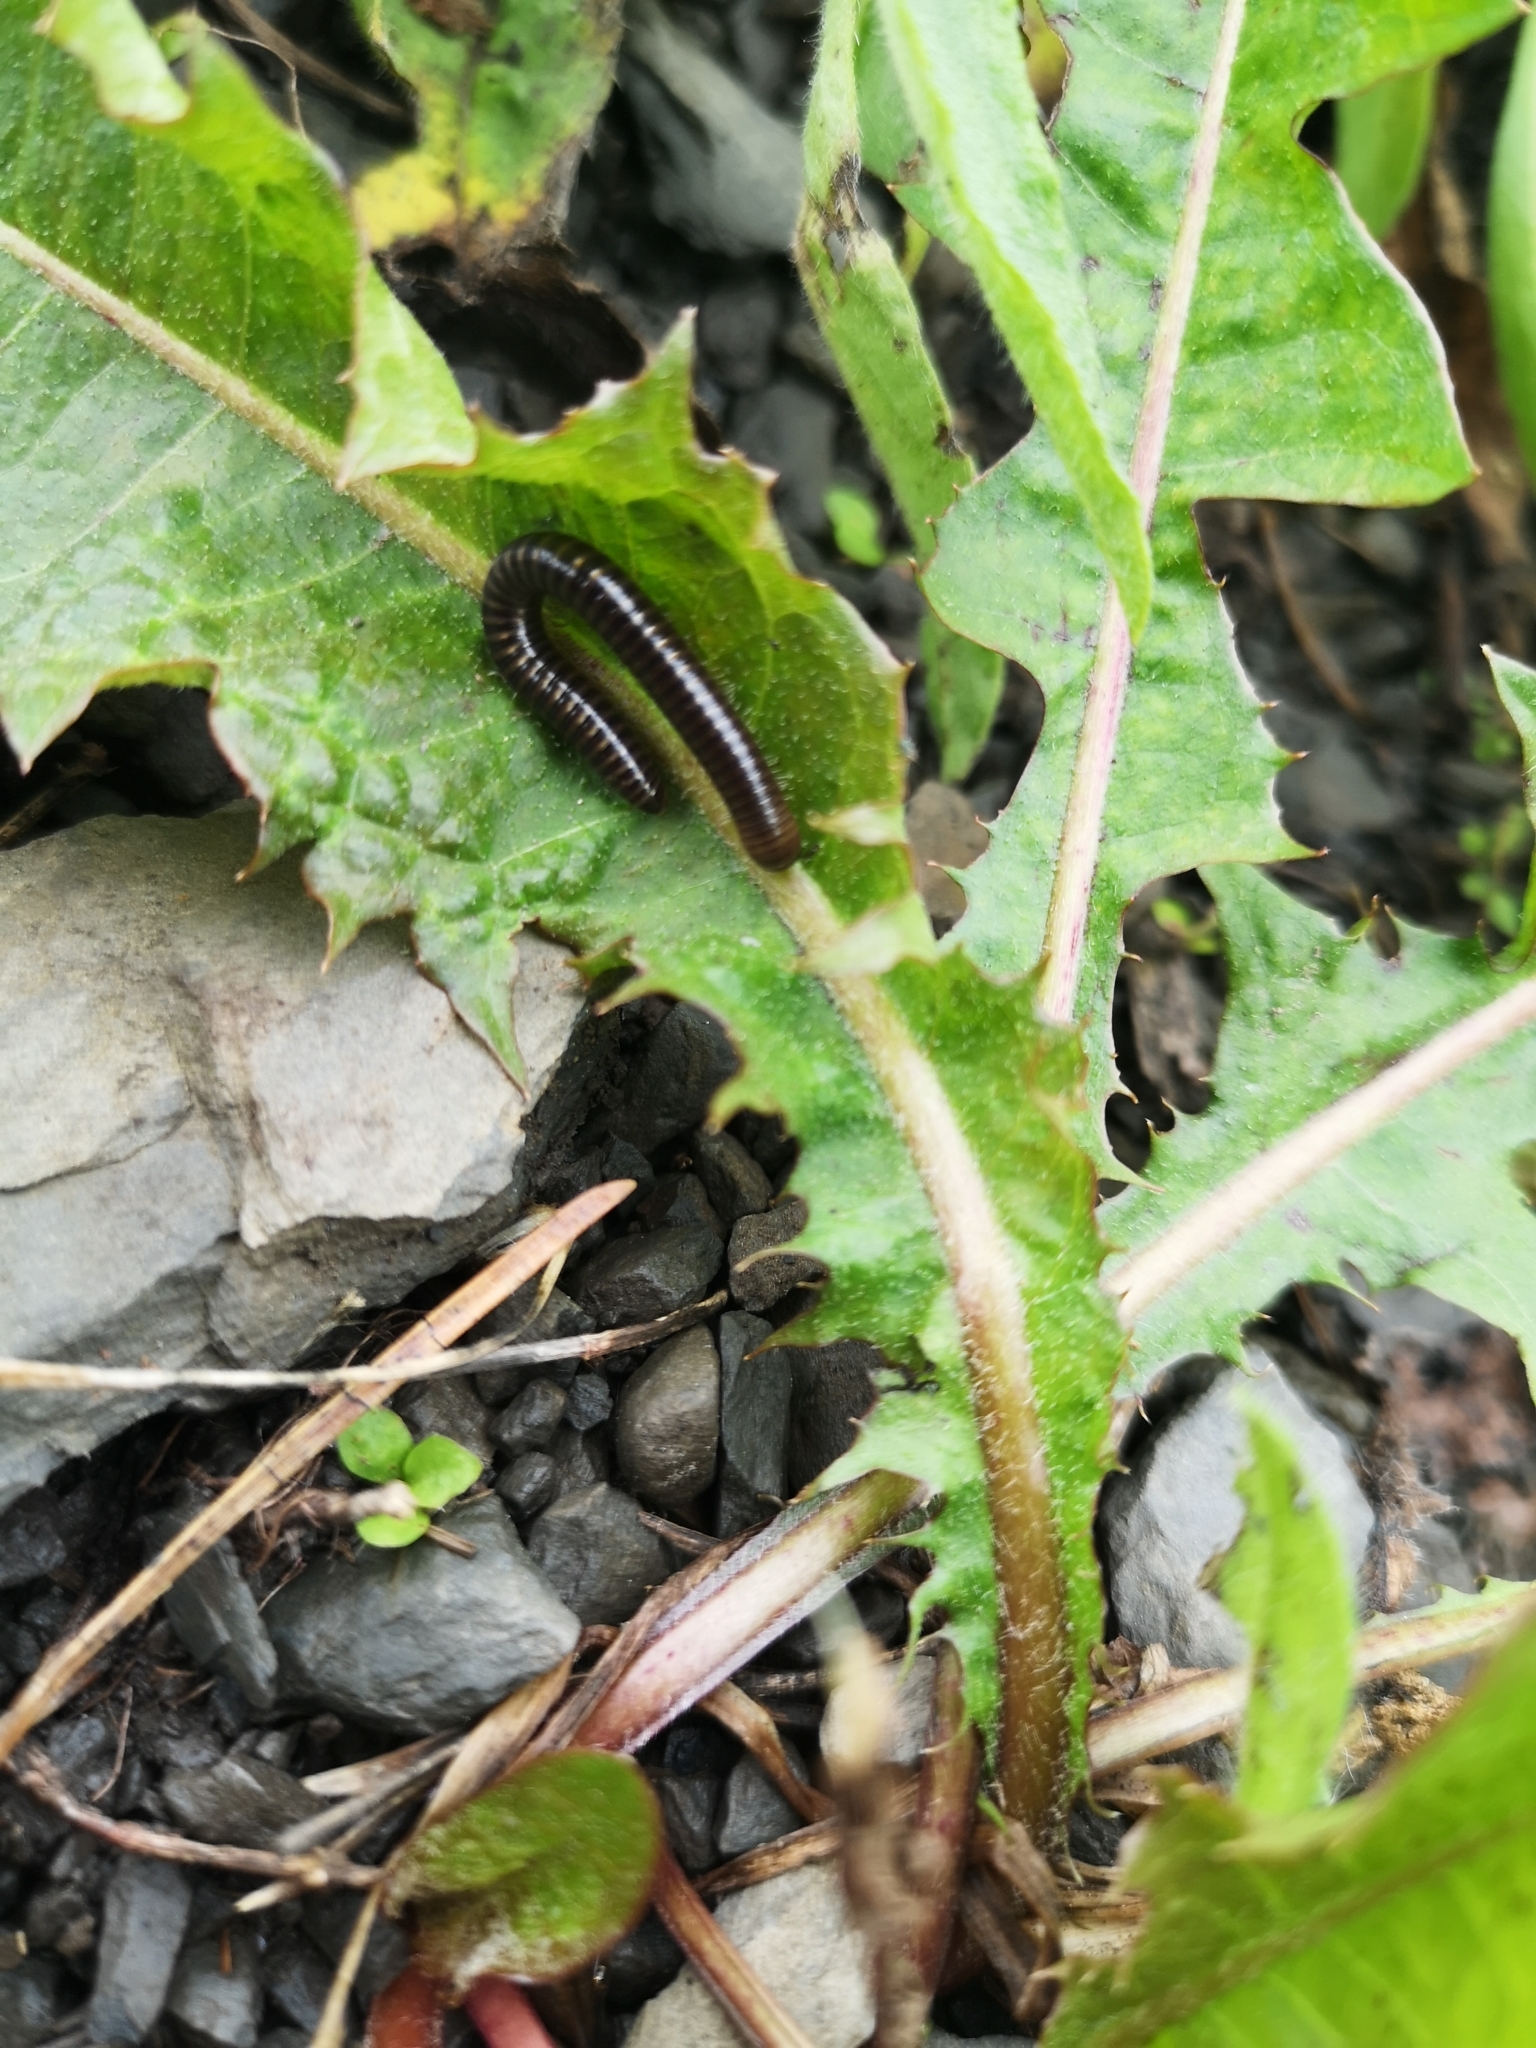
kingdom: Animalia
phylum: Arthropoda
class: Diplopoda
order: Julida
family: Julidae
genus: Cylindroiulus
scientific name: Cylindroiulus caeruleocinctus
